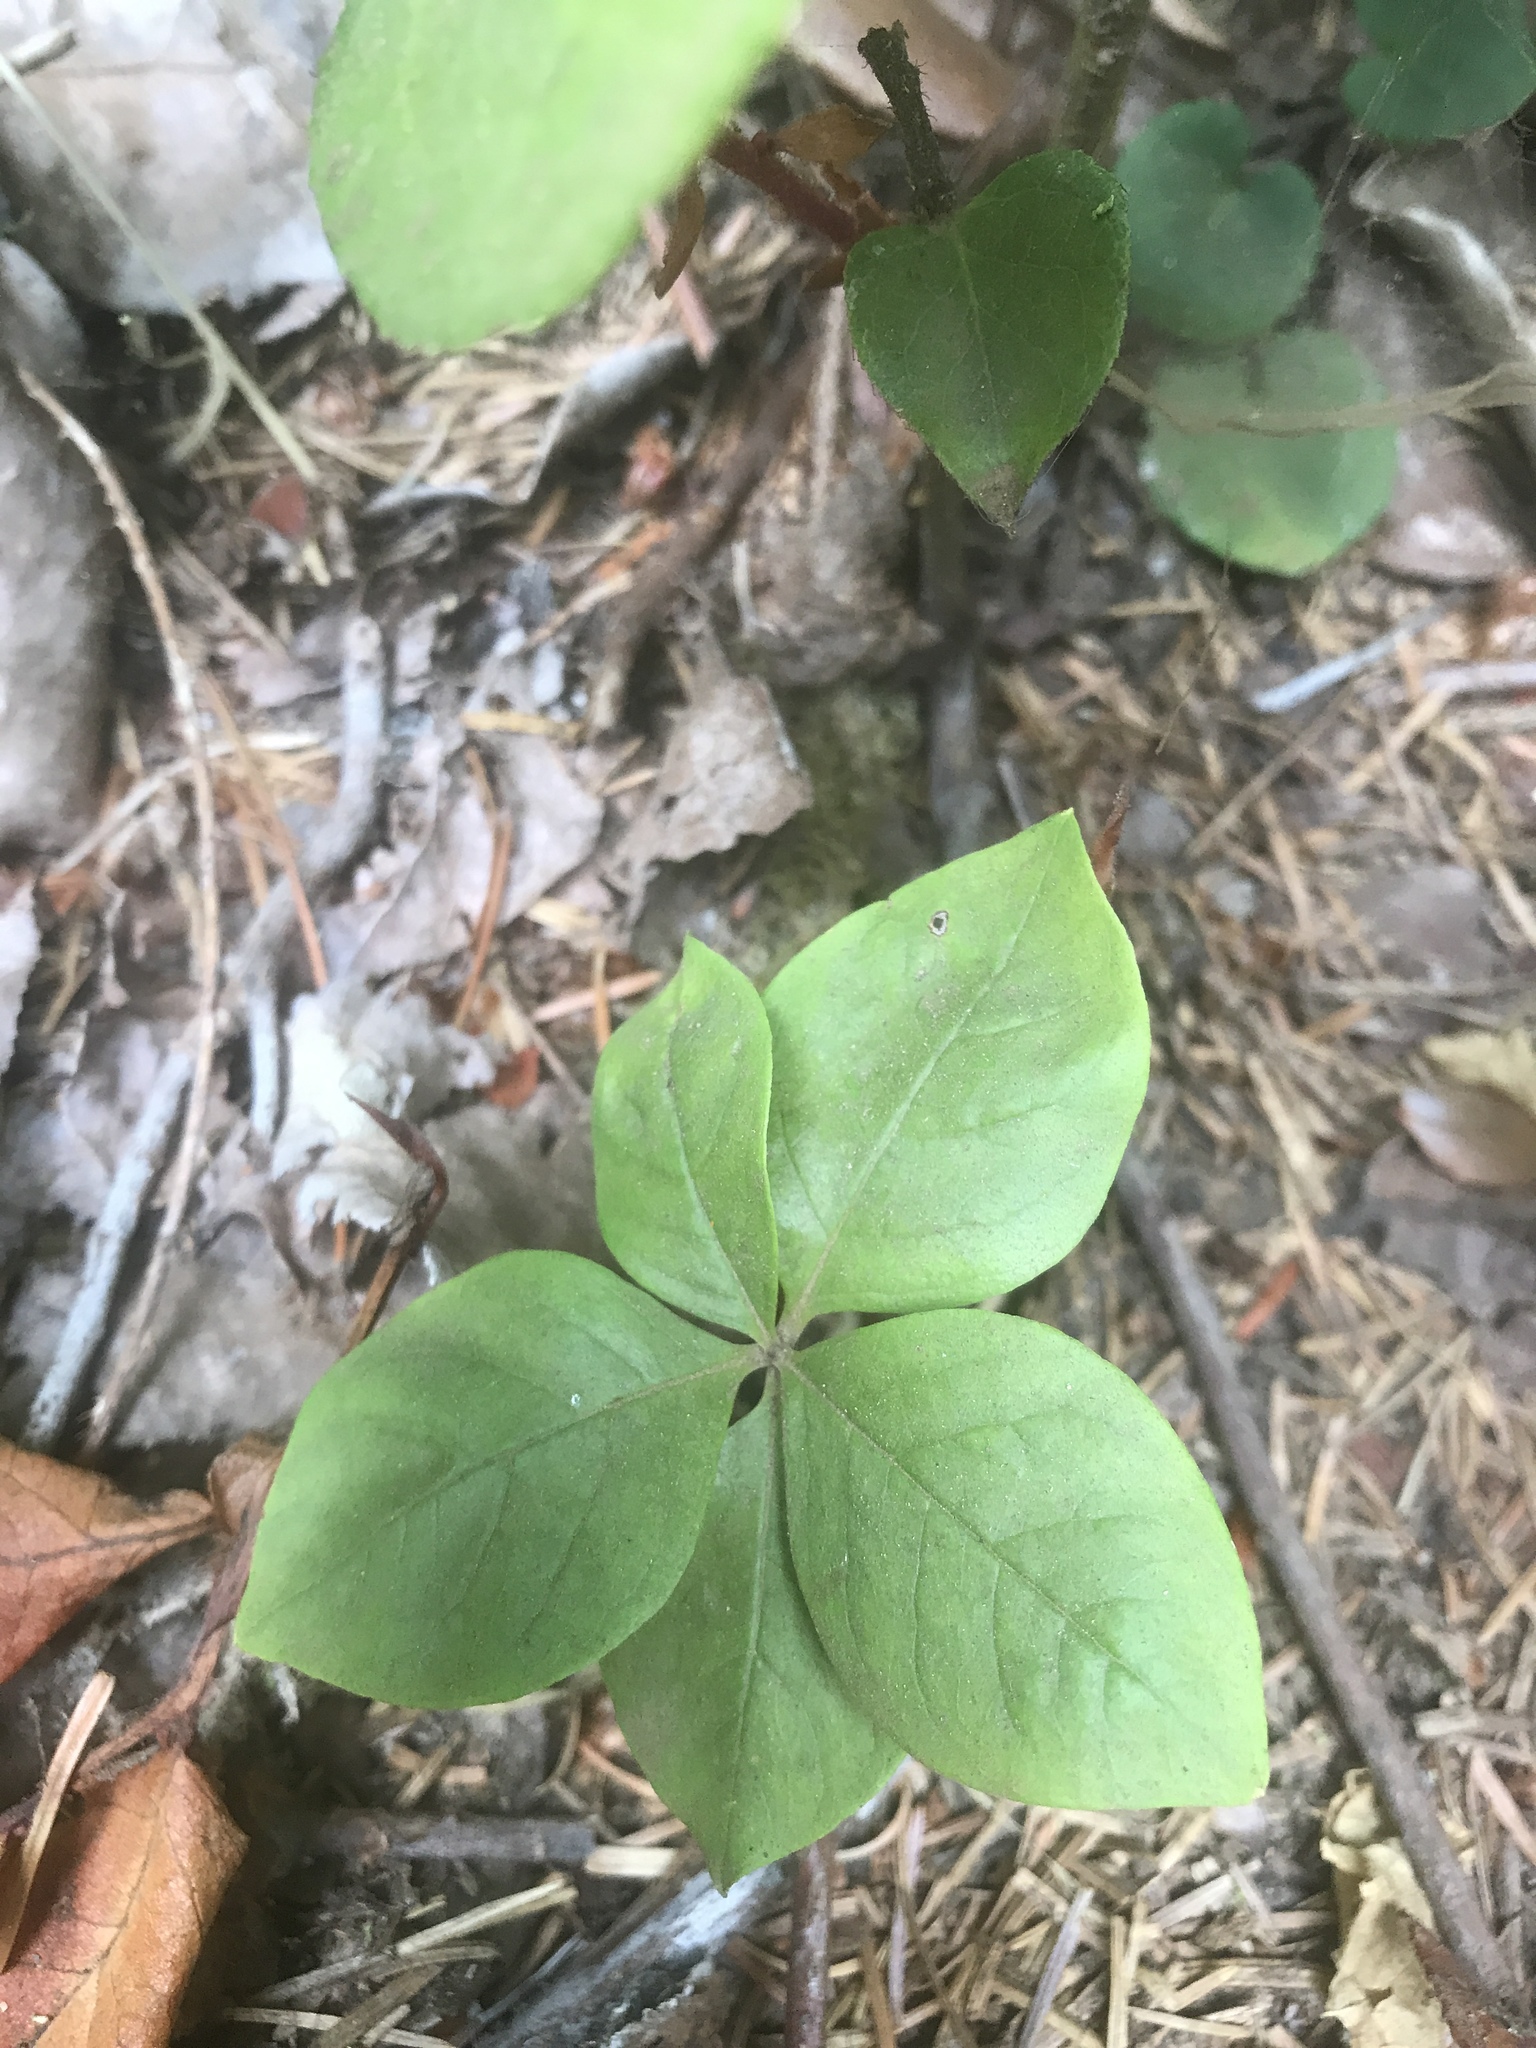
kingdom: Plantae
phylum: Tracheophyta
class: Magnoliopsida
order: Ericales
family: Primulaceae
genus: Lysimachia
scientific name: Lysimachia latifolia
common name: Pacific starflower
